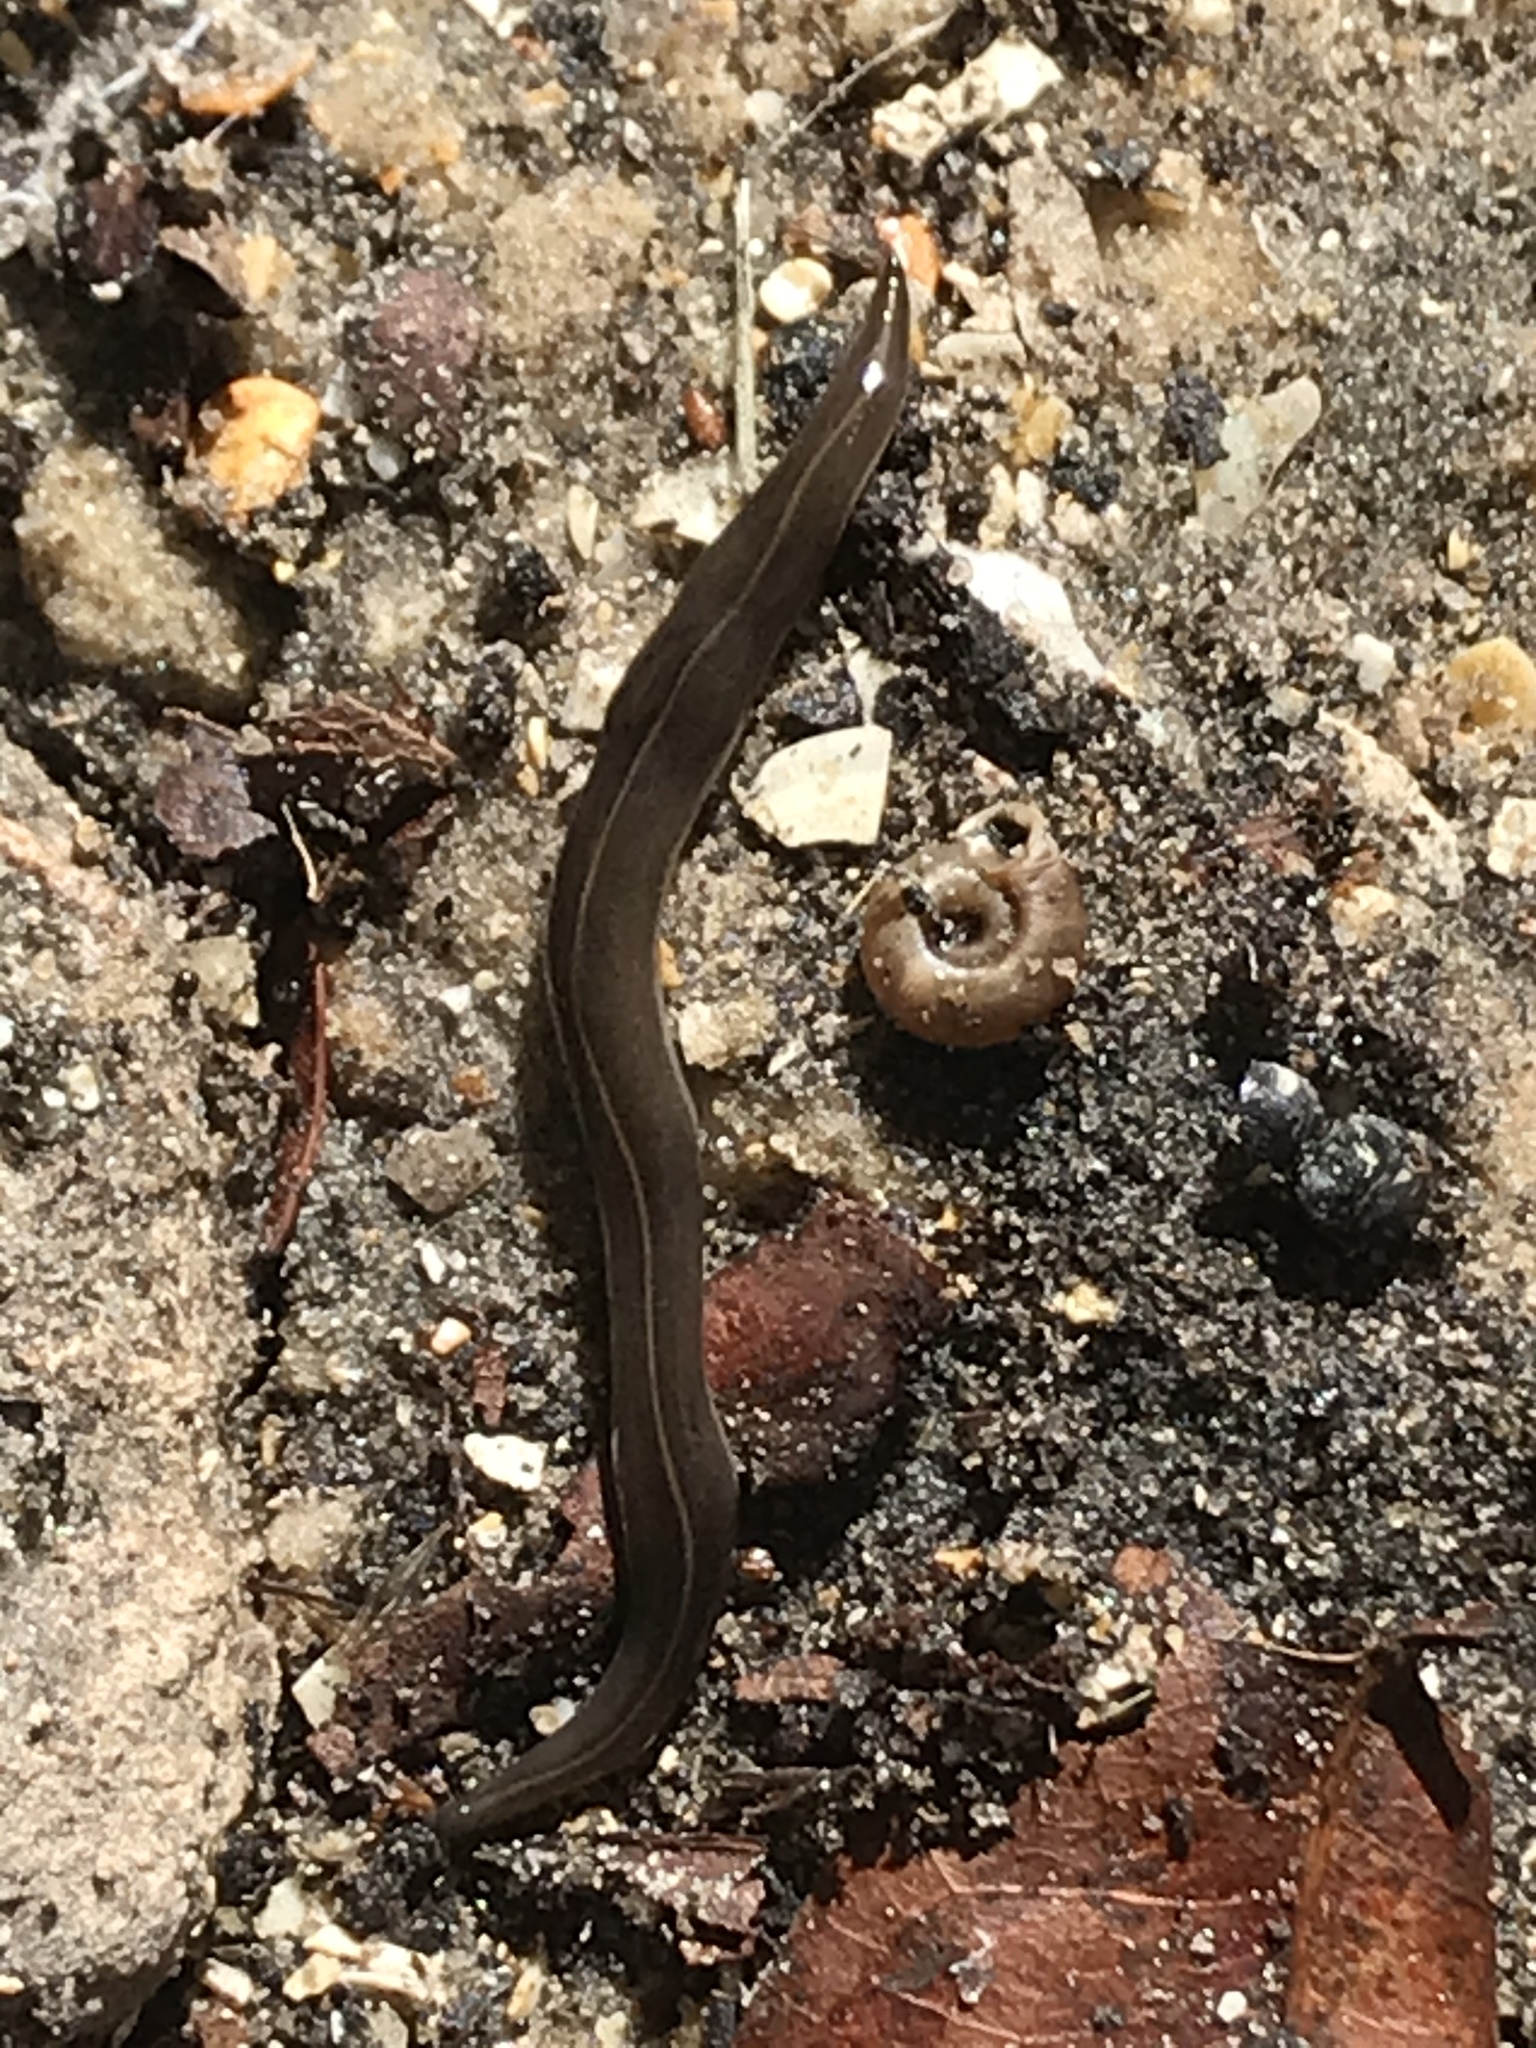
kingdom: Animalia
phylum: Platyhelminthes
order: Tricladida
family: Geoplanidae
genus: Platydemus
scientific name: Platydemus manokwari
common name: New guinea flatworm
